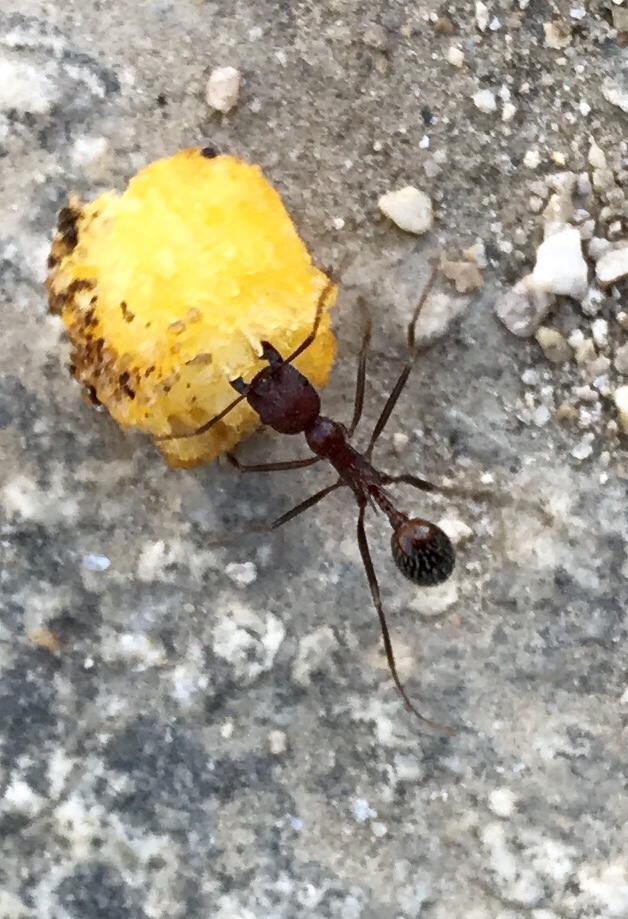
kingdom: Animalia
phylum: Arthropoda
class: Insecta
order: Hymenoptera
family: Formicidae
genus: Novomessor
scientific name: Novomessor albisetosa
